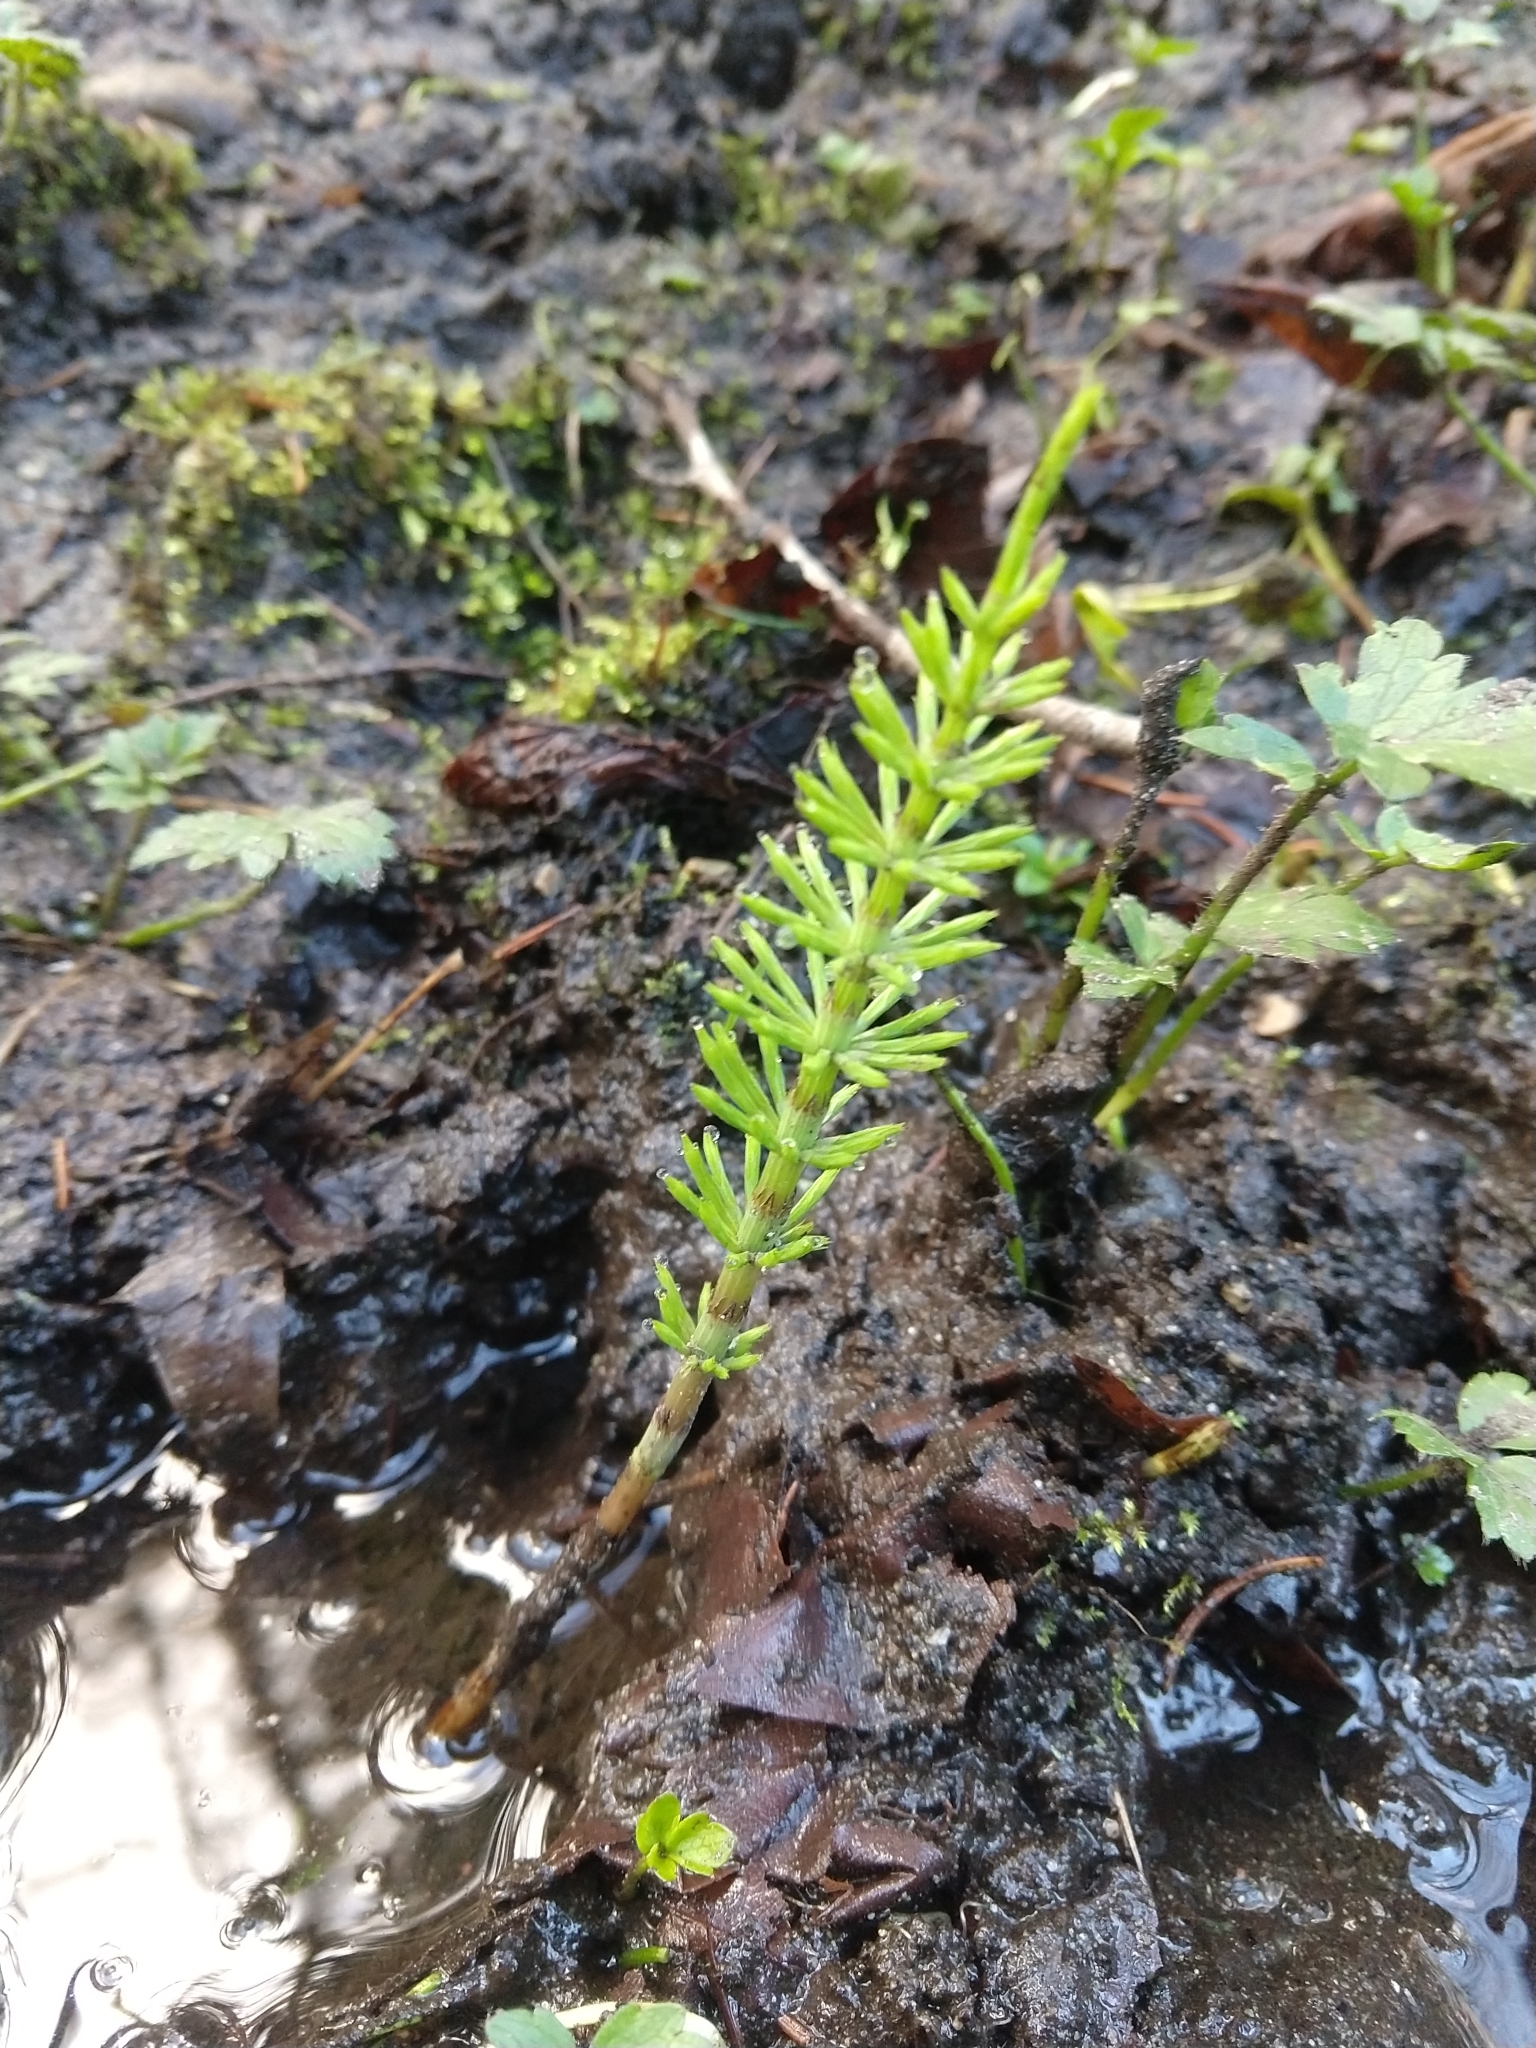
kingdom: Plantae
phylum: Tracheophyta
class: Polypodiopsida
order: Equisetales
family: Equisetaceae
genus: Equisetum
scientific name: Equisetum arvense
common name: Field horsetail
